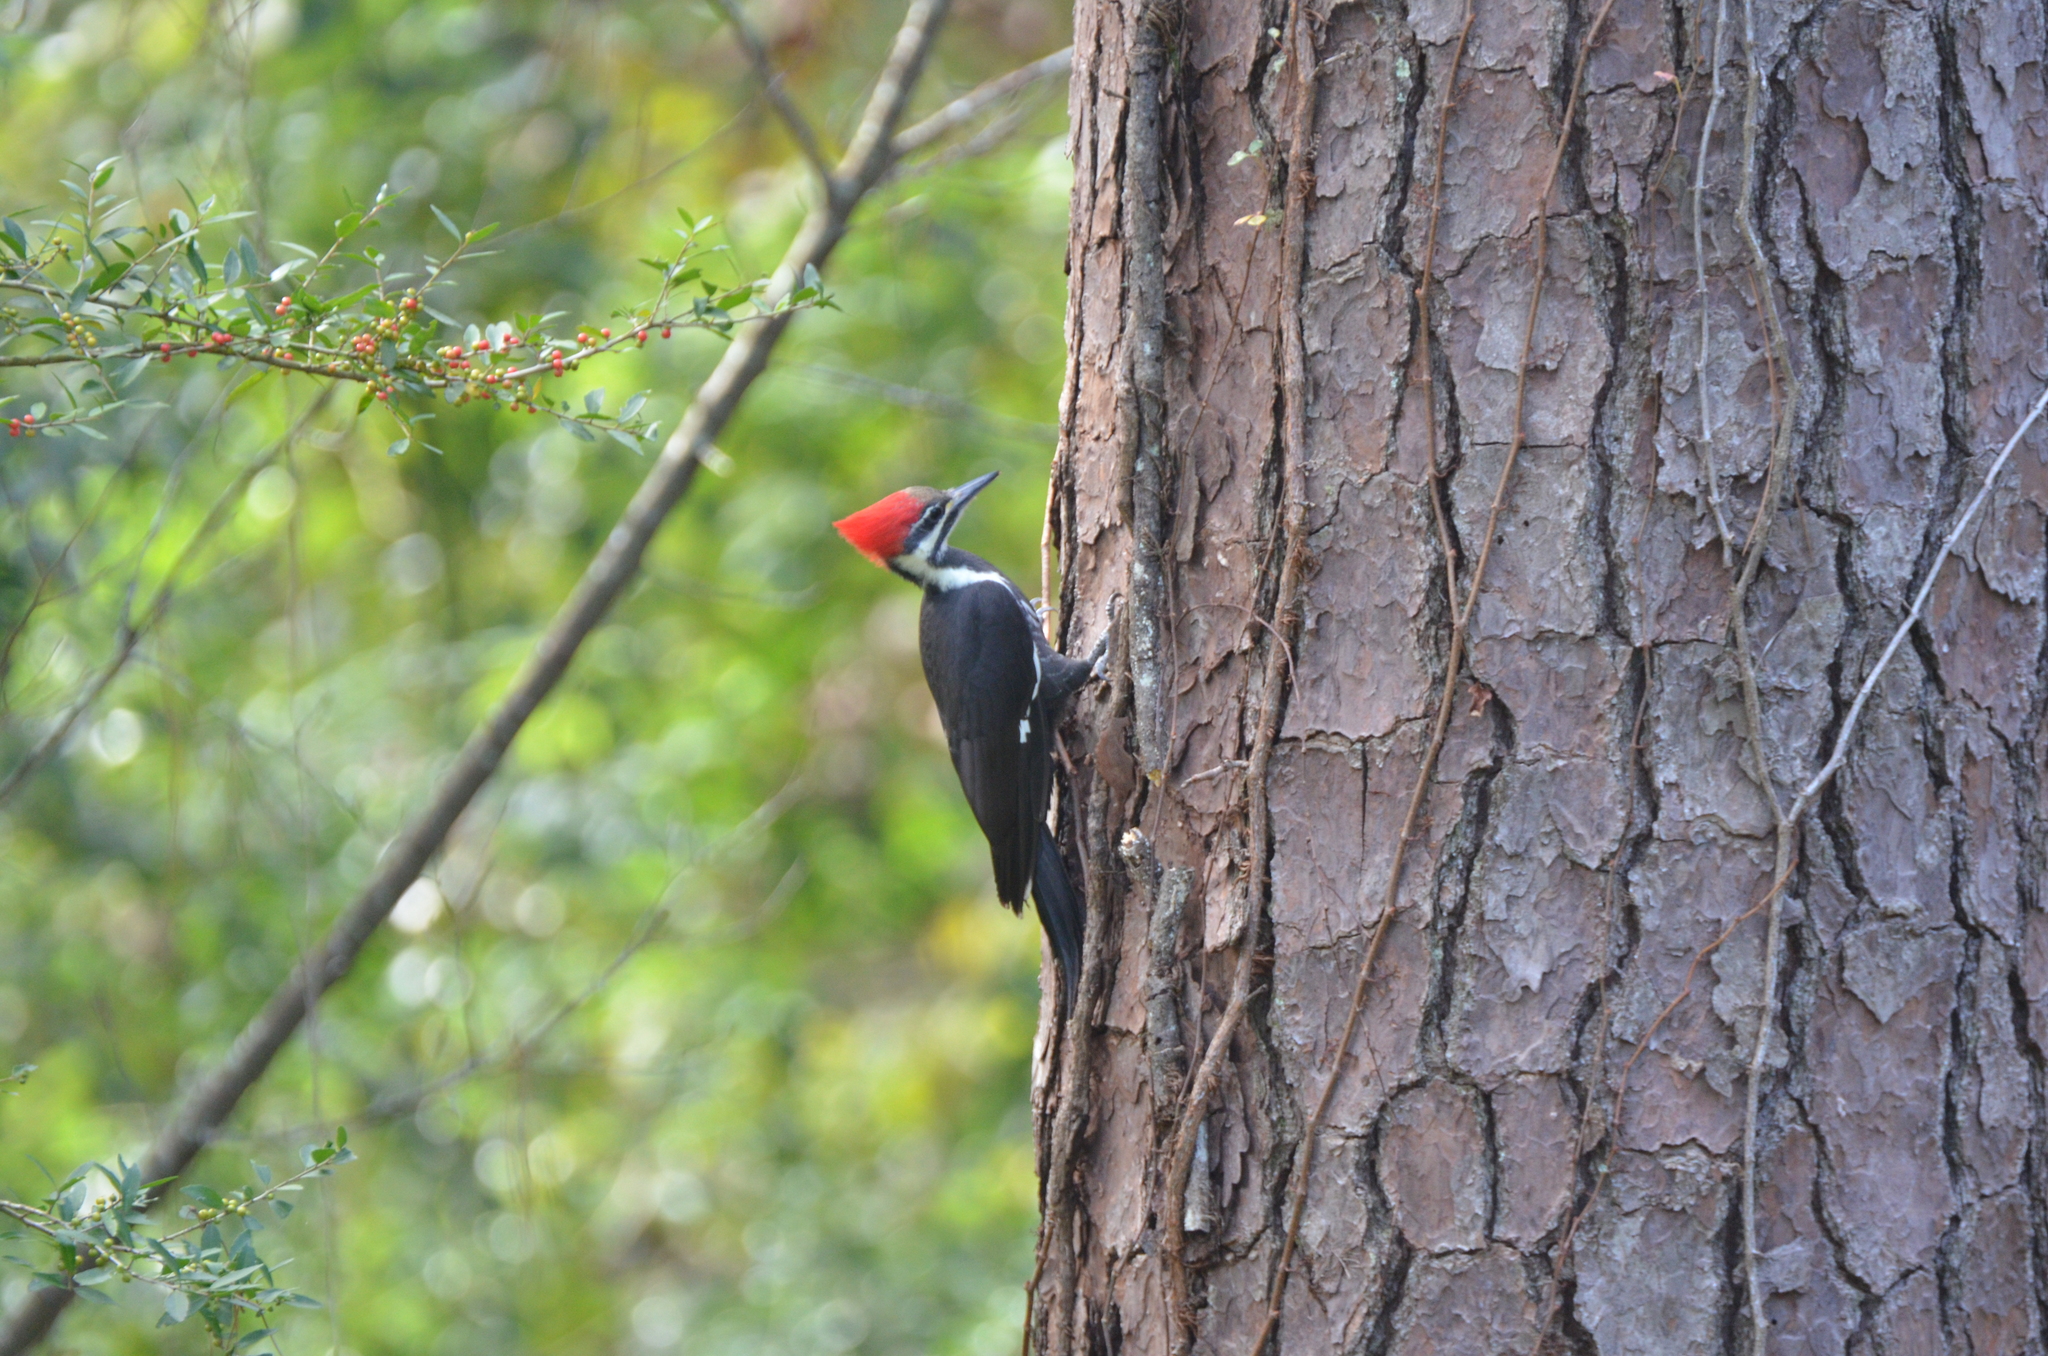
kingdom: Animalia
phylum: Chordata
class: Aves
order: Piciformes
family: Picidae
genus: Dryocopus
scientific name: Dryocopus pileatus
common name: Pileated woodpecker
